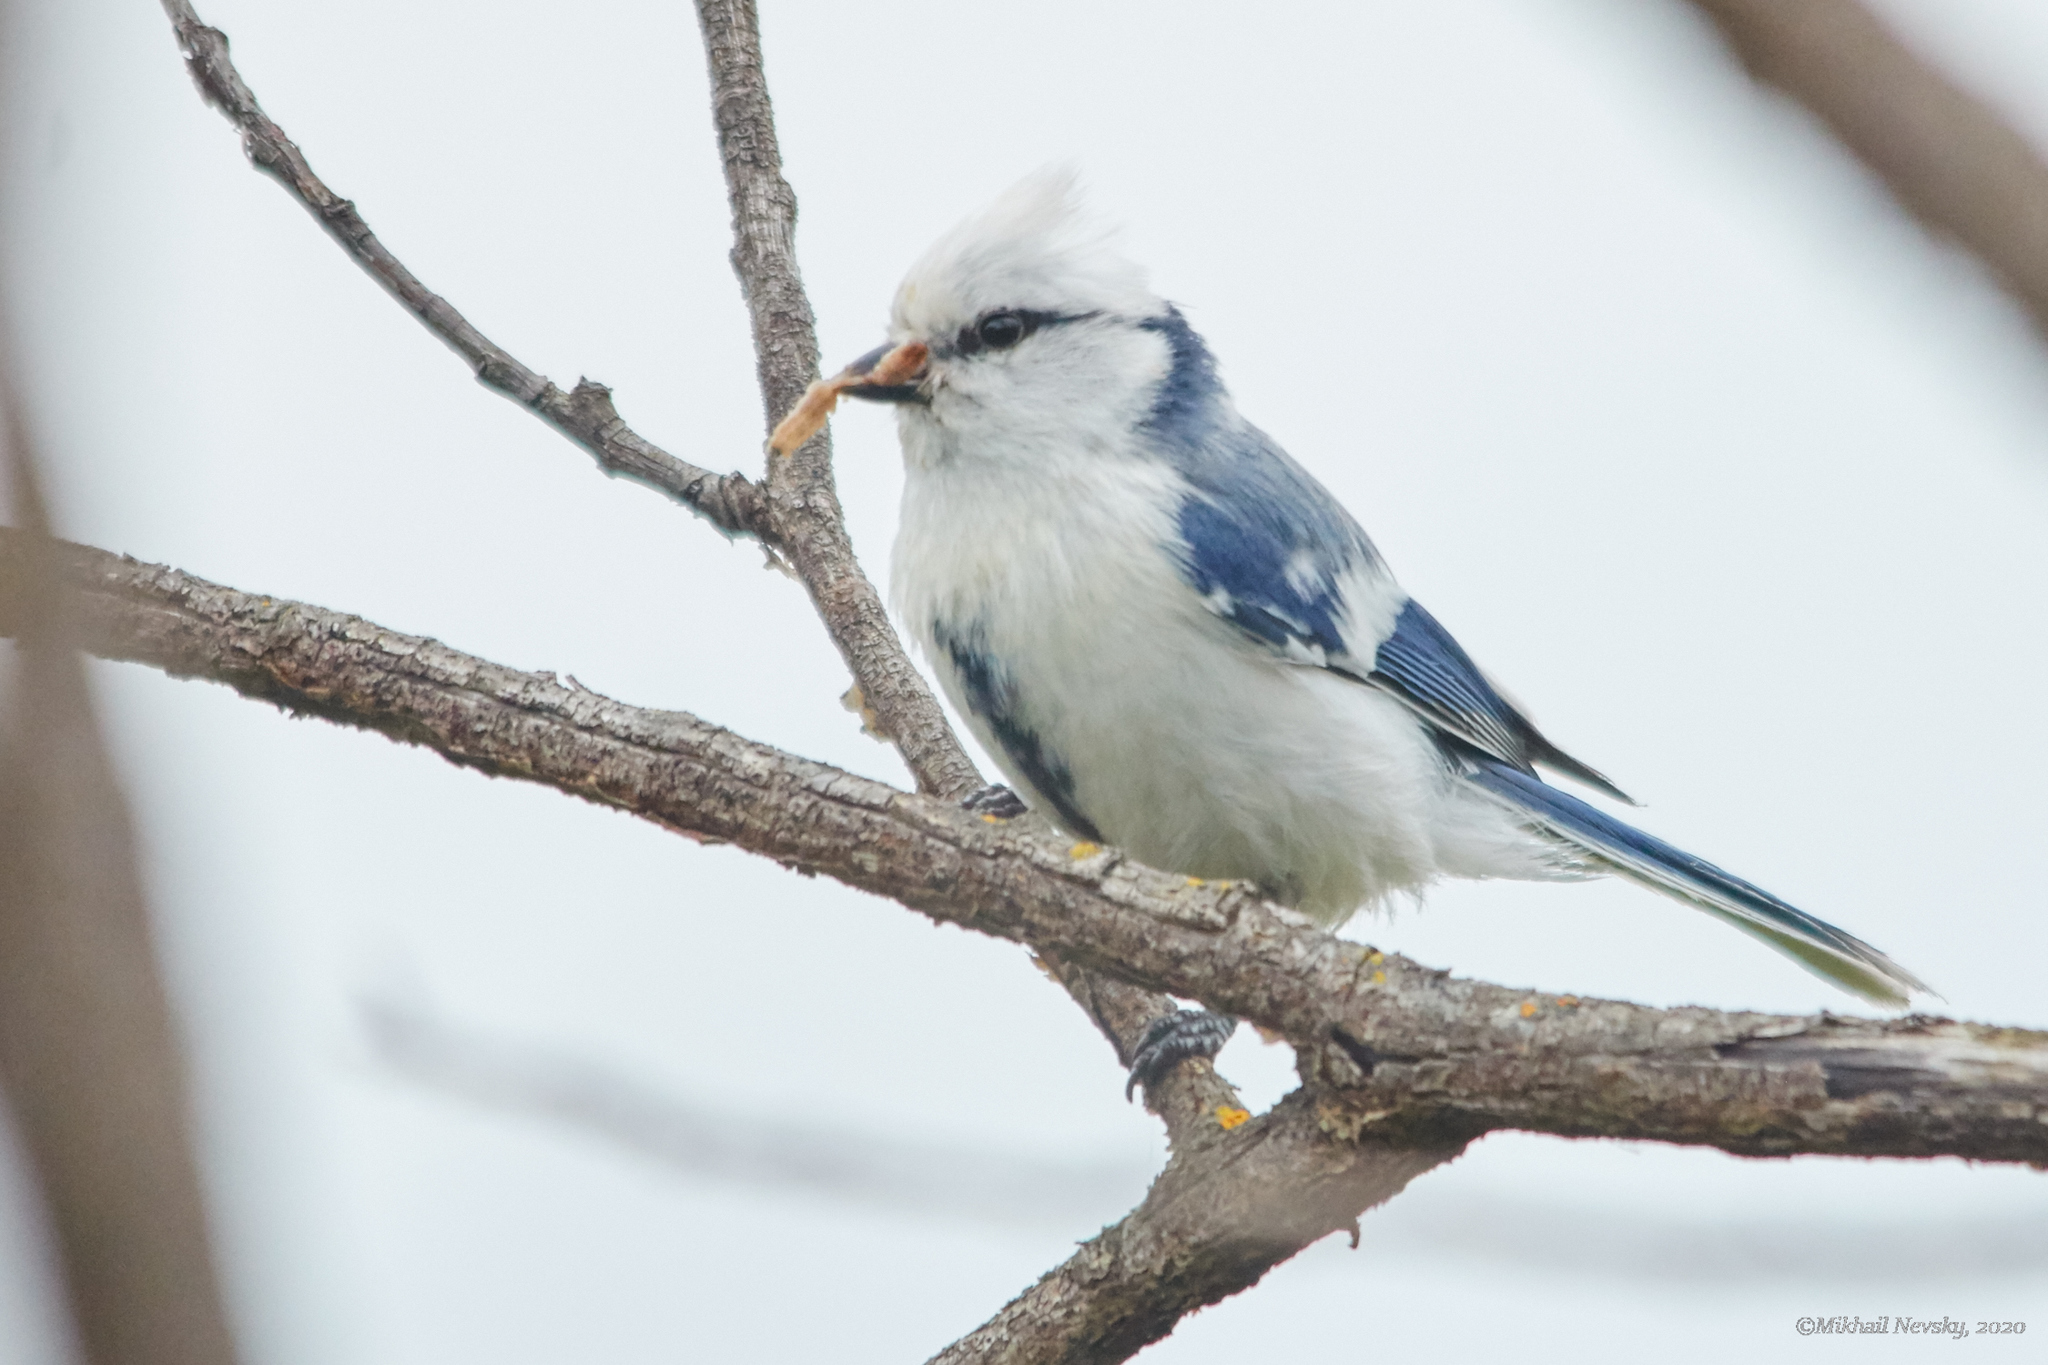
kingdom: Animalia
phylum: Chordata
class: Aves
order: Passeriformes
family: Paridae
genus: Cyanistes
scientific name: Cyanistes cyanus
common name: Azure tit
